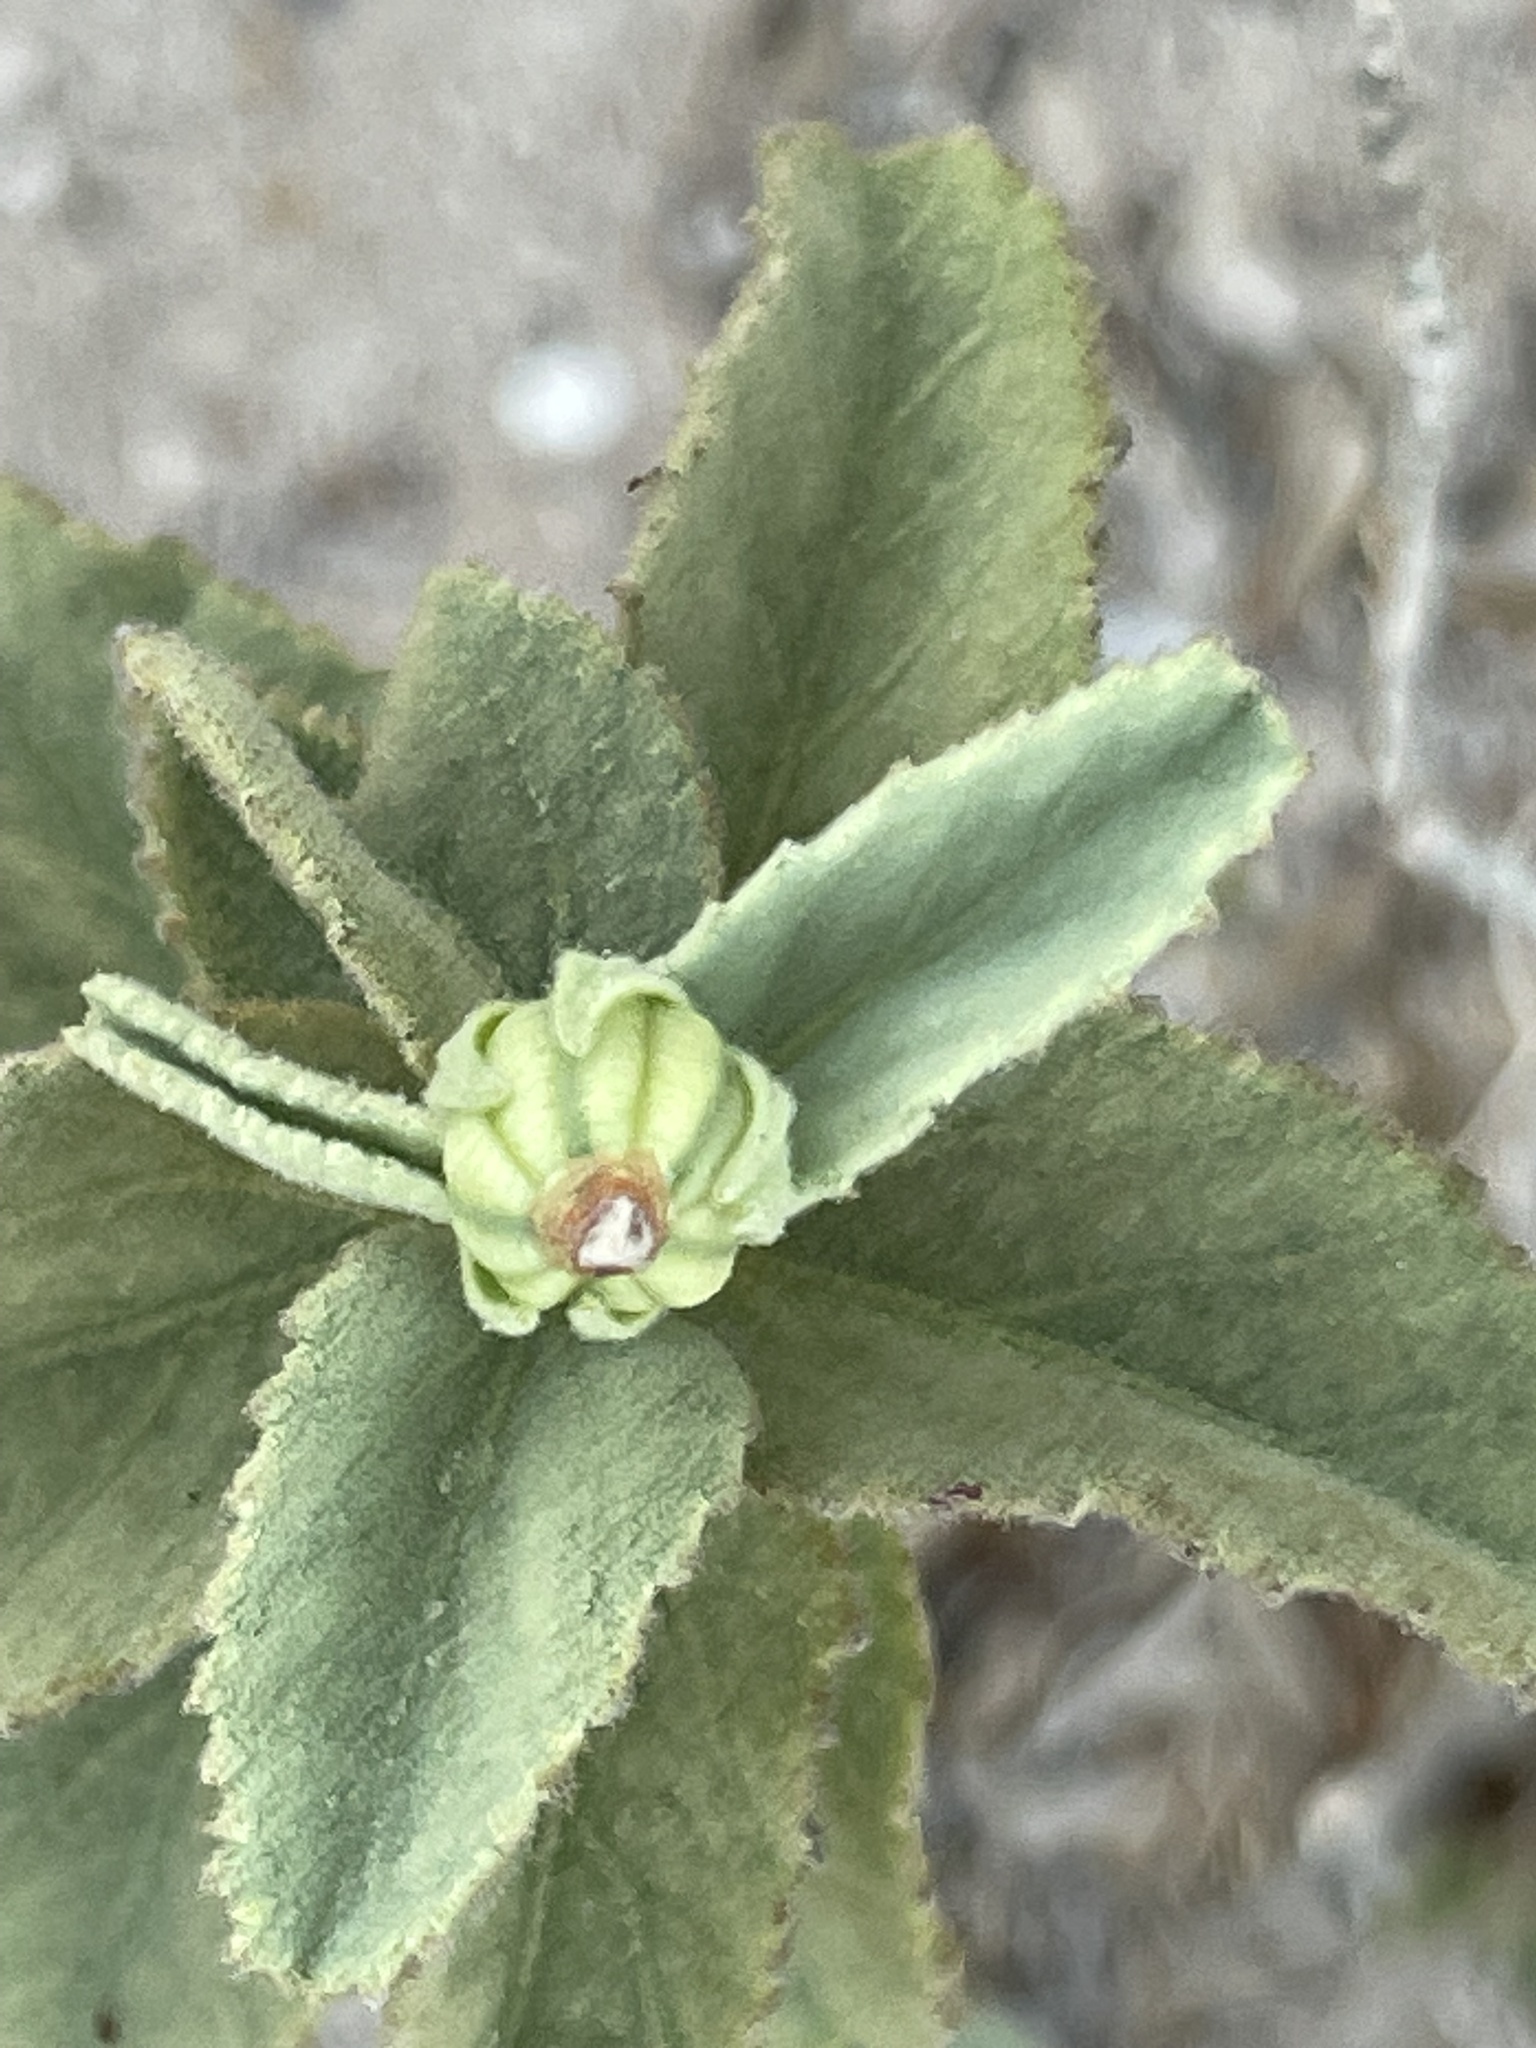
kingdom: Plantae
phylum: Tracheophyta
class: Magnoliopsida
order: Malvales
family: Malvaceae
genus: Hibiscus
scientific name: Hibiscus denudatus
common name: Paleface
